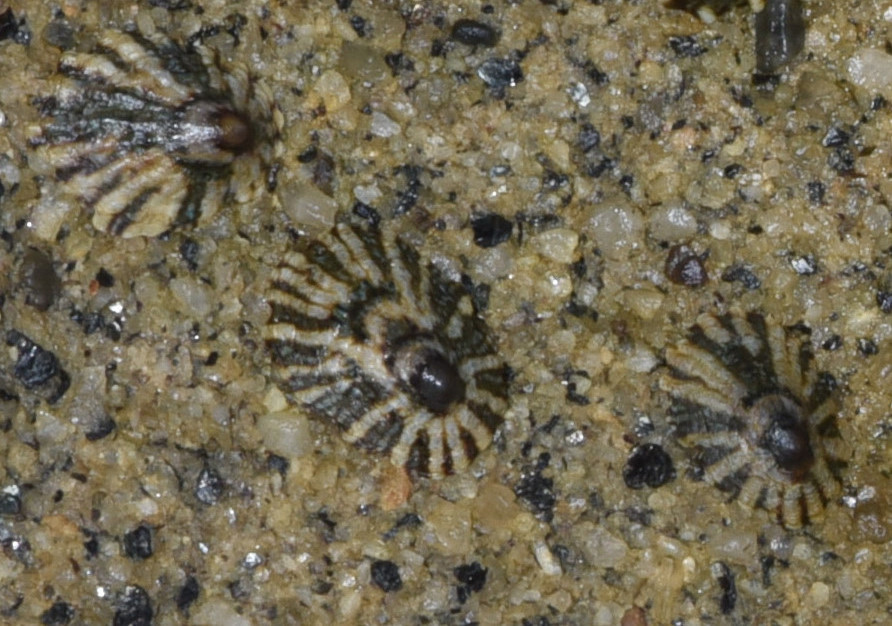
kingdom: Animalia
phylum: Mollusca
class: Gastropoda
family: Lottiidae
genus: Lottia
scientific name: Lottia scabra
